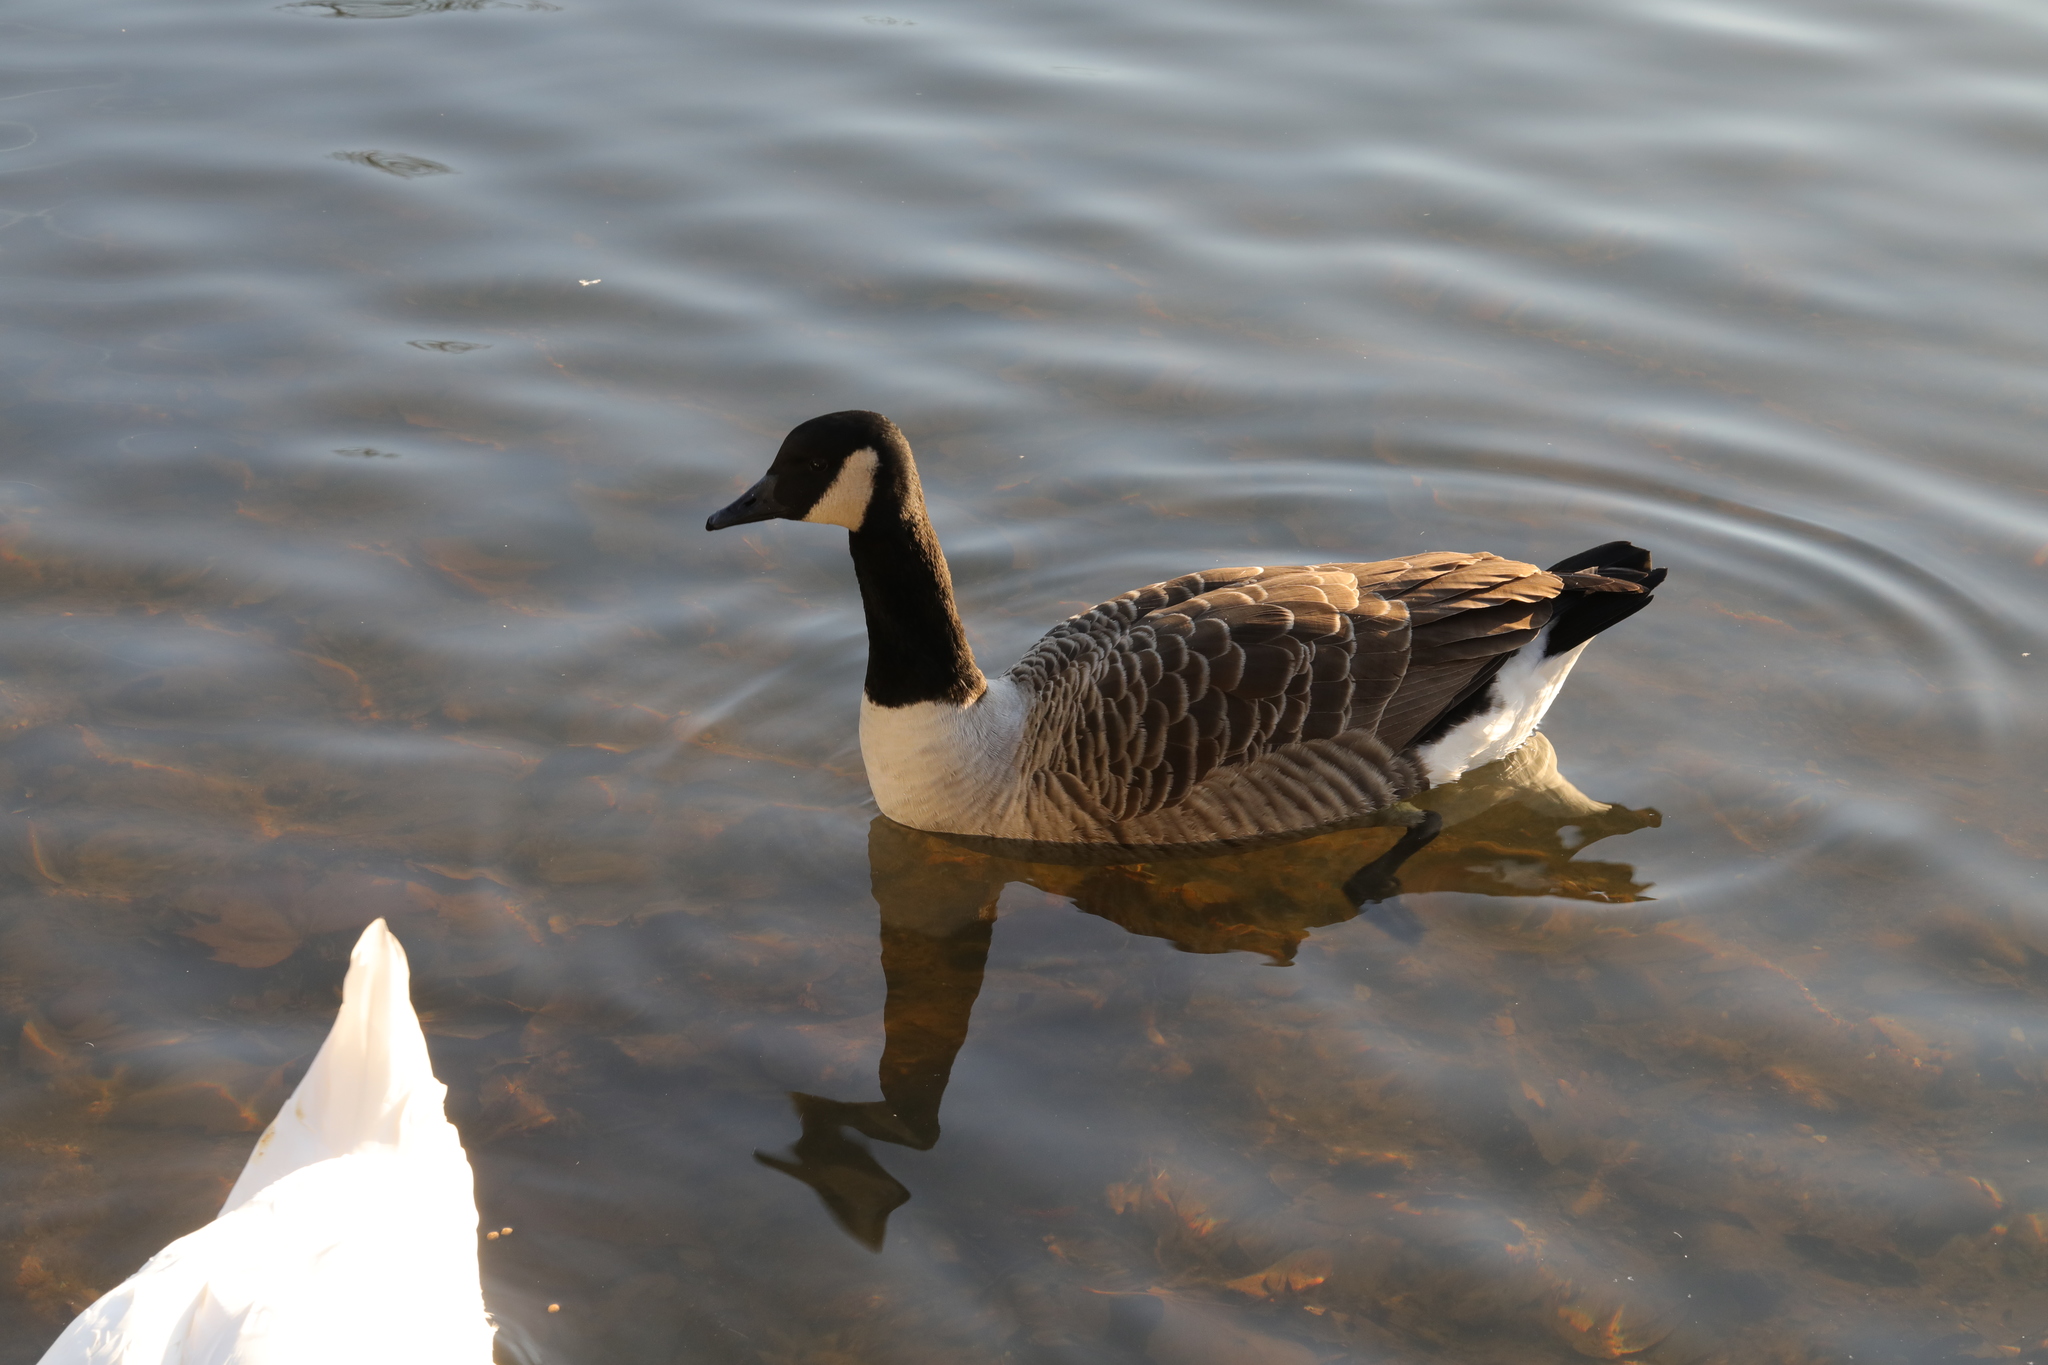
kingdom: Animalia
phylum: Chordata
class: Aves
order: Anseriformes
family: Anatidae
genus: Branta
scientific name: Branta canadensis
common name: Canada goose
